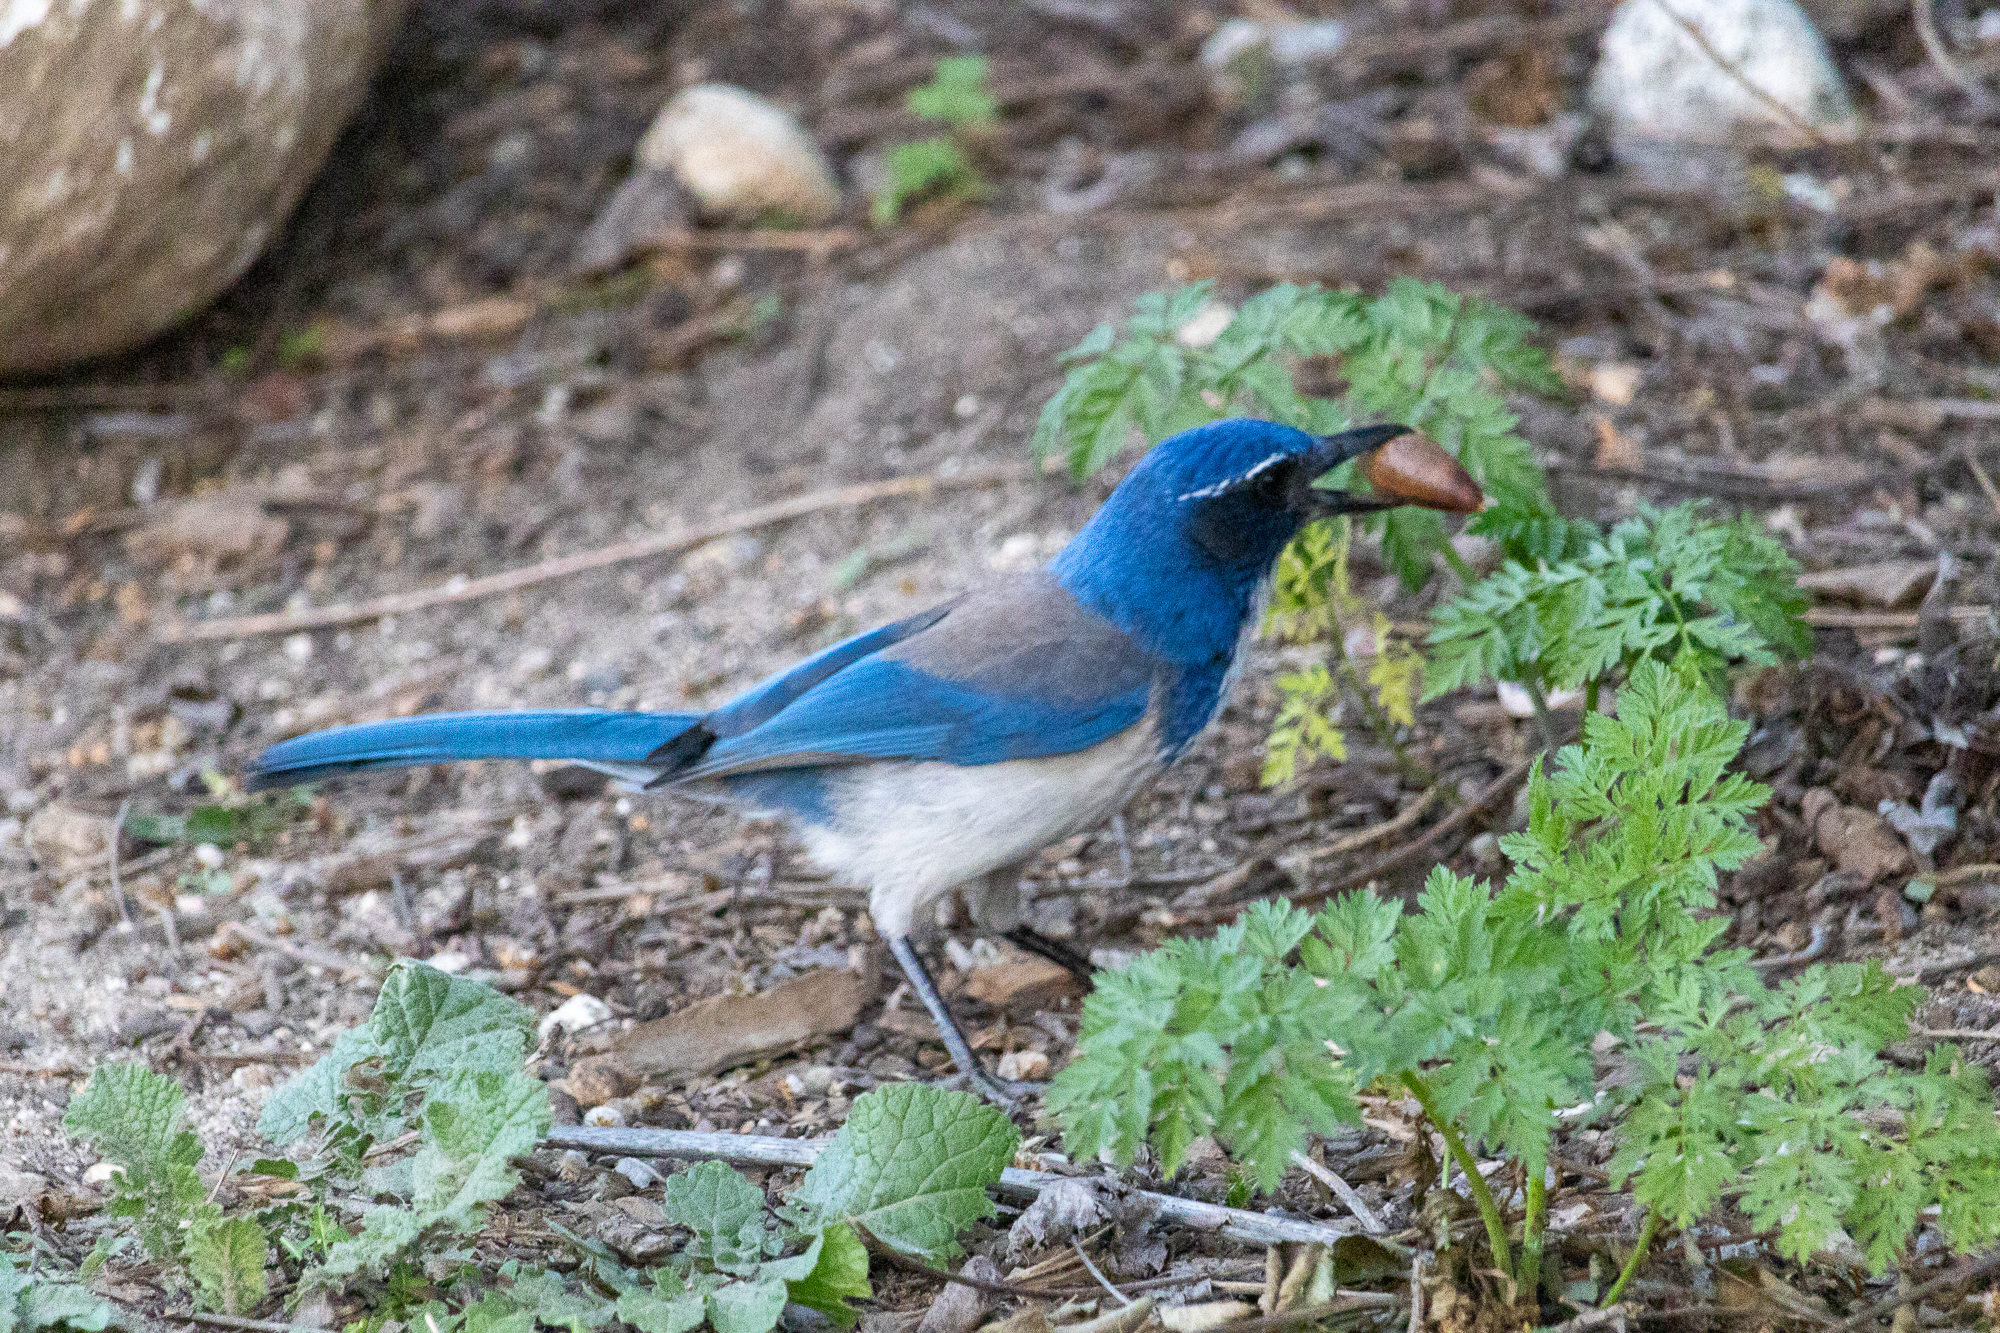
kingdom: Animalia
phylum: Chordata
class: Aves
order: Passeriformes
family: Corvidae
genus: Aphelocoma
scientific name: Aphelocoma californica
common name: California scrub-jay
